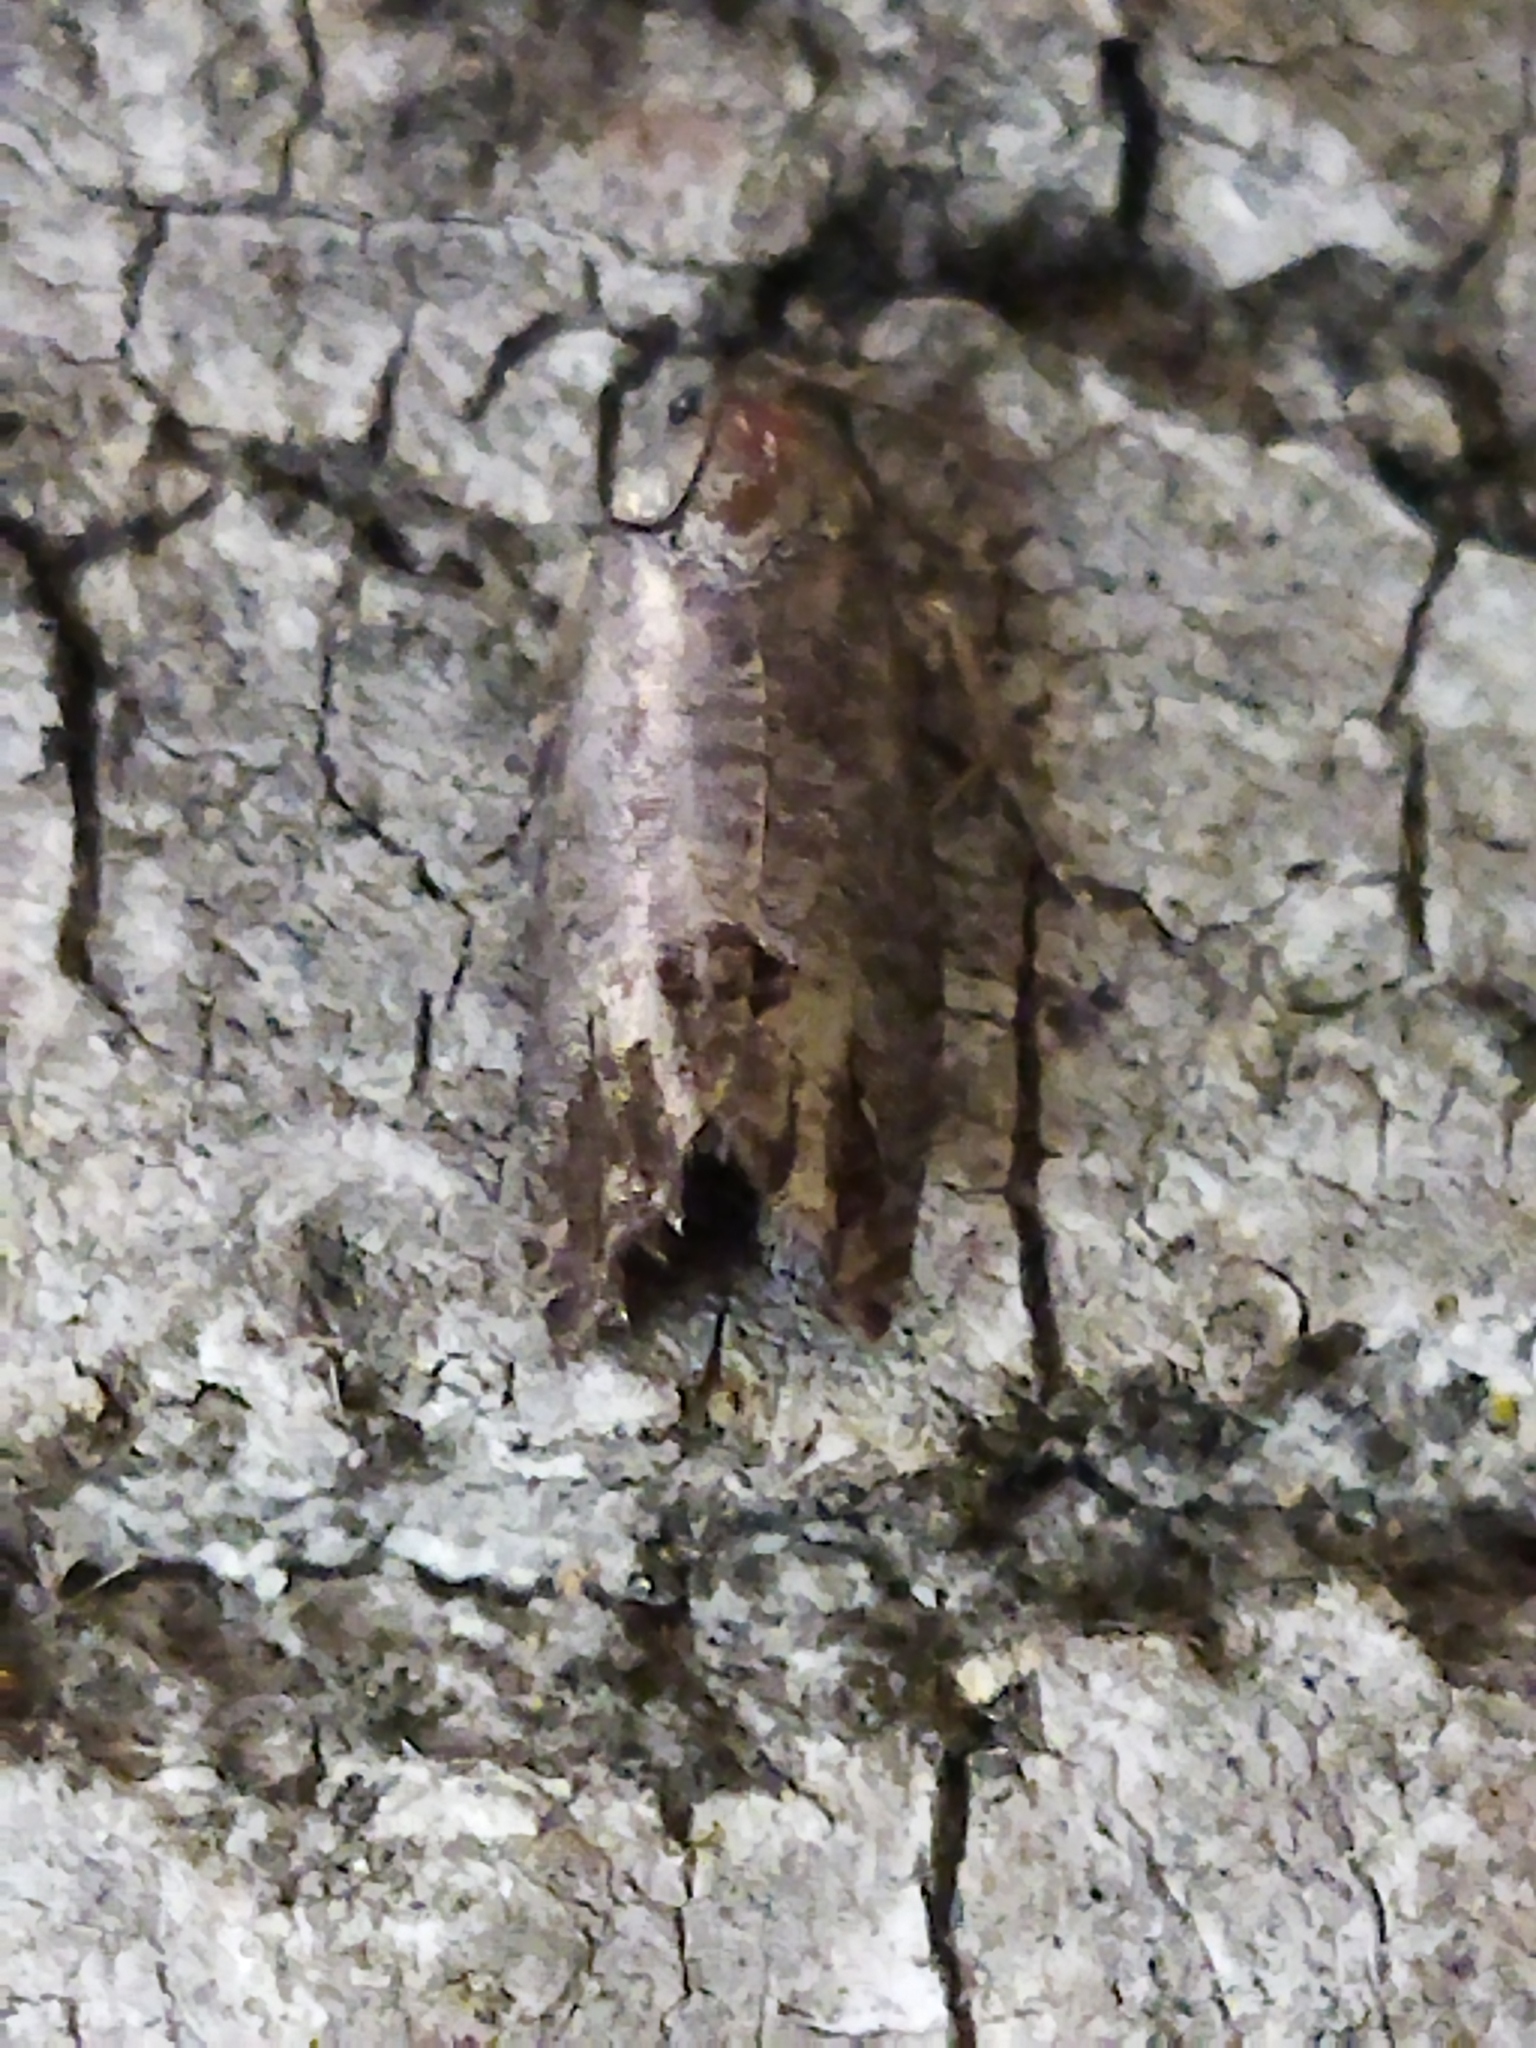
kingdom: Animalia
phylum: Arthropoda
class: Insecta
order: Lepidoptera
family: Tortricidae
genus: Cydia
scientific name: Cydia pomonella
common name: Codling moth
